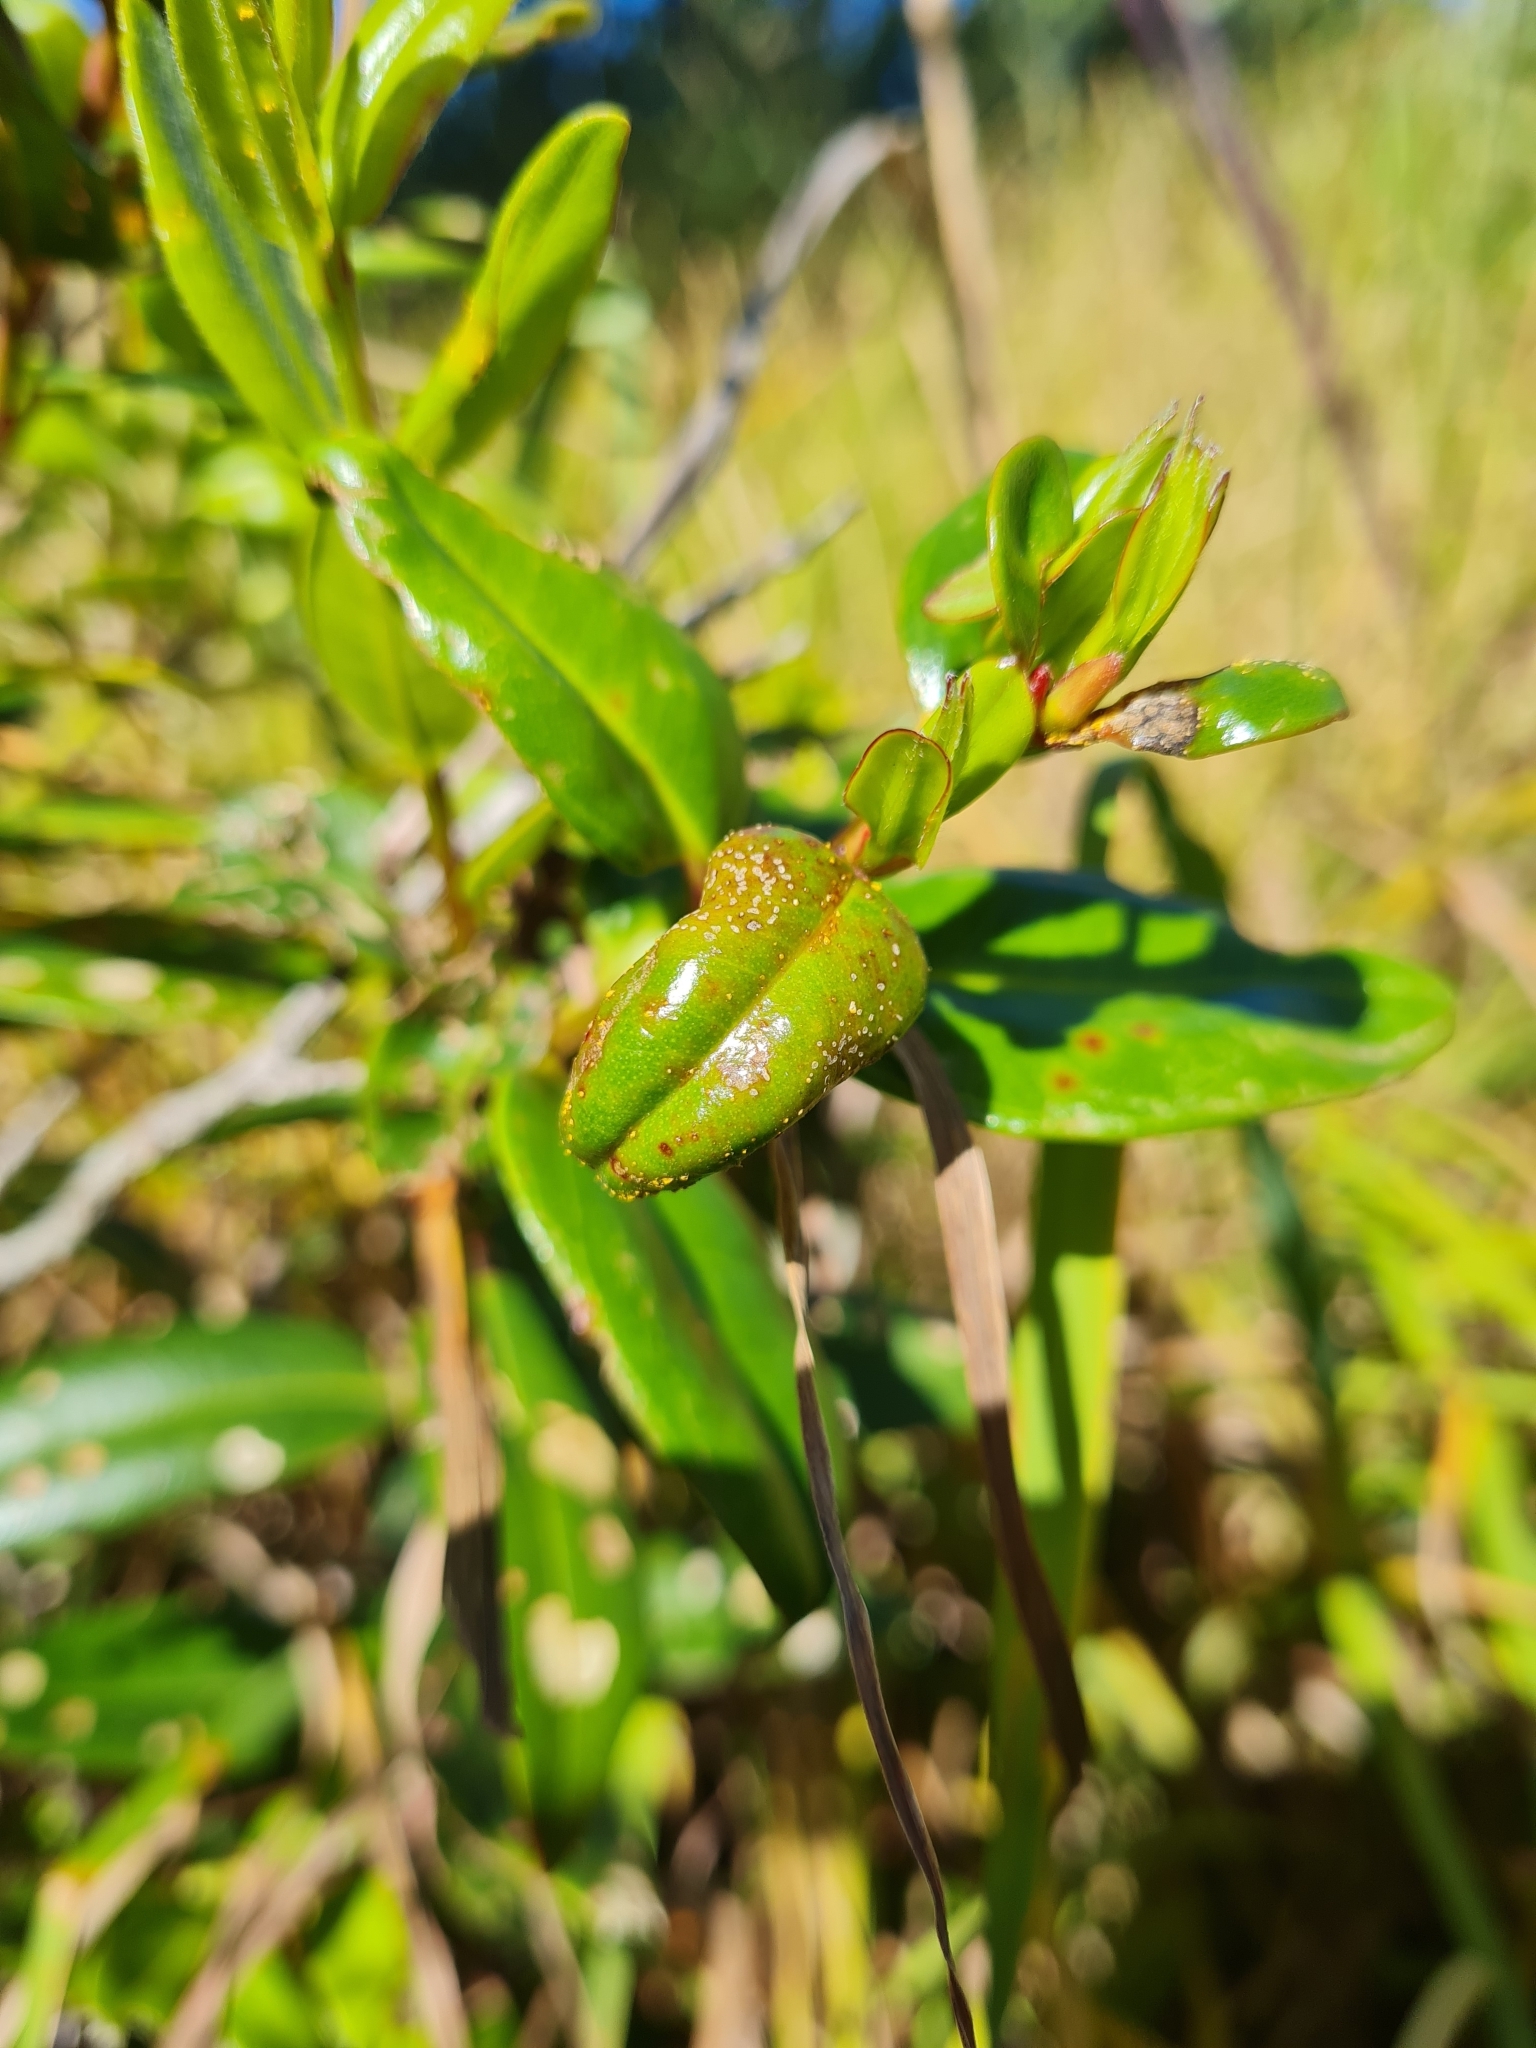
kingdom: Fungi
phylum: Basidiomycota
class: Pucciniomycetes
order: Pucciniales
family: Sphaerophragmiaceae
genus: Austropuccinia
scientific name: Austropuccinia psidii
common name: Myrtle rust
